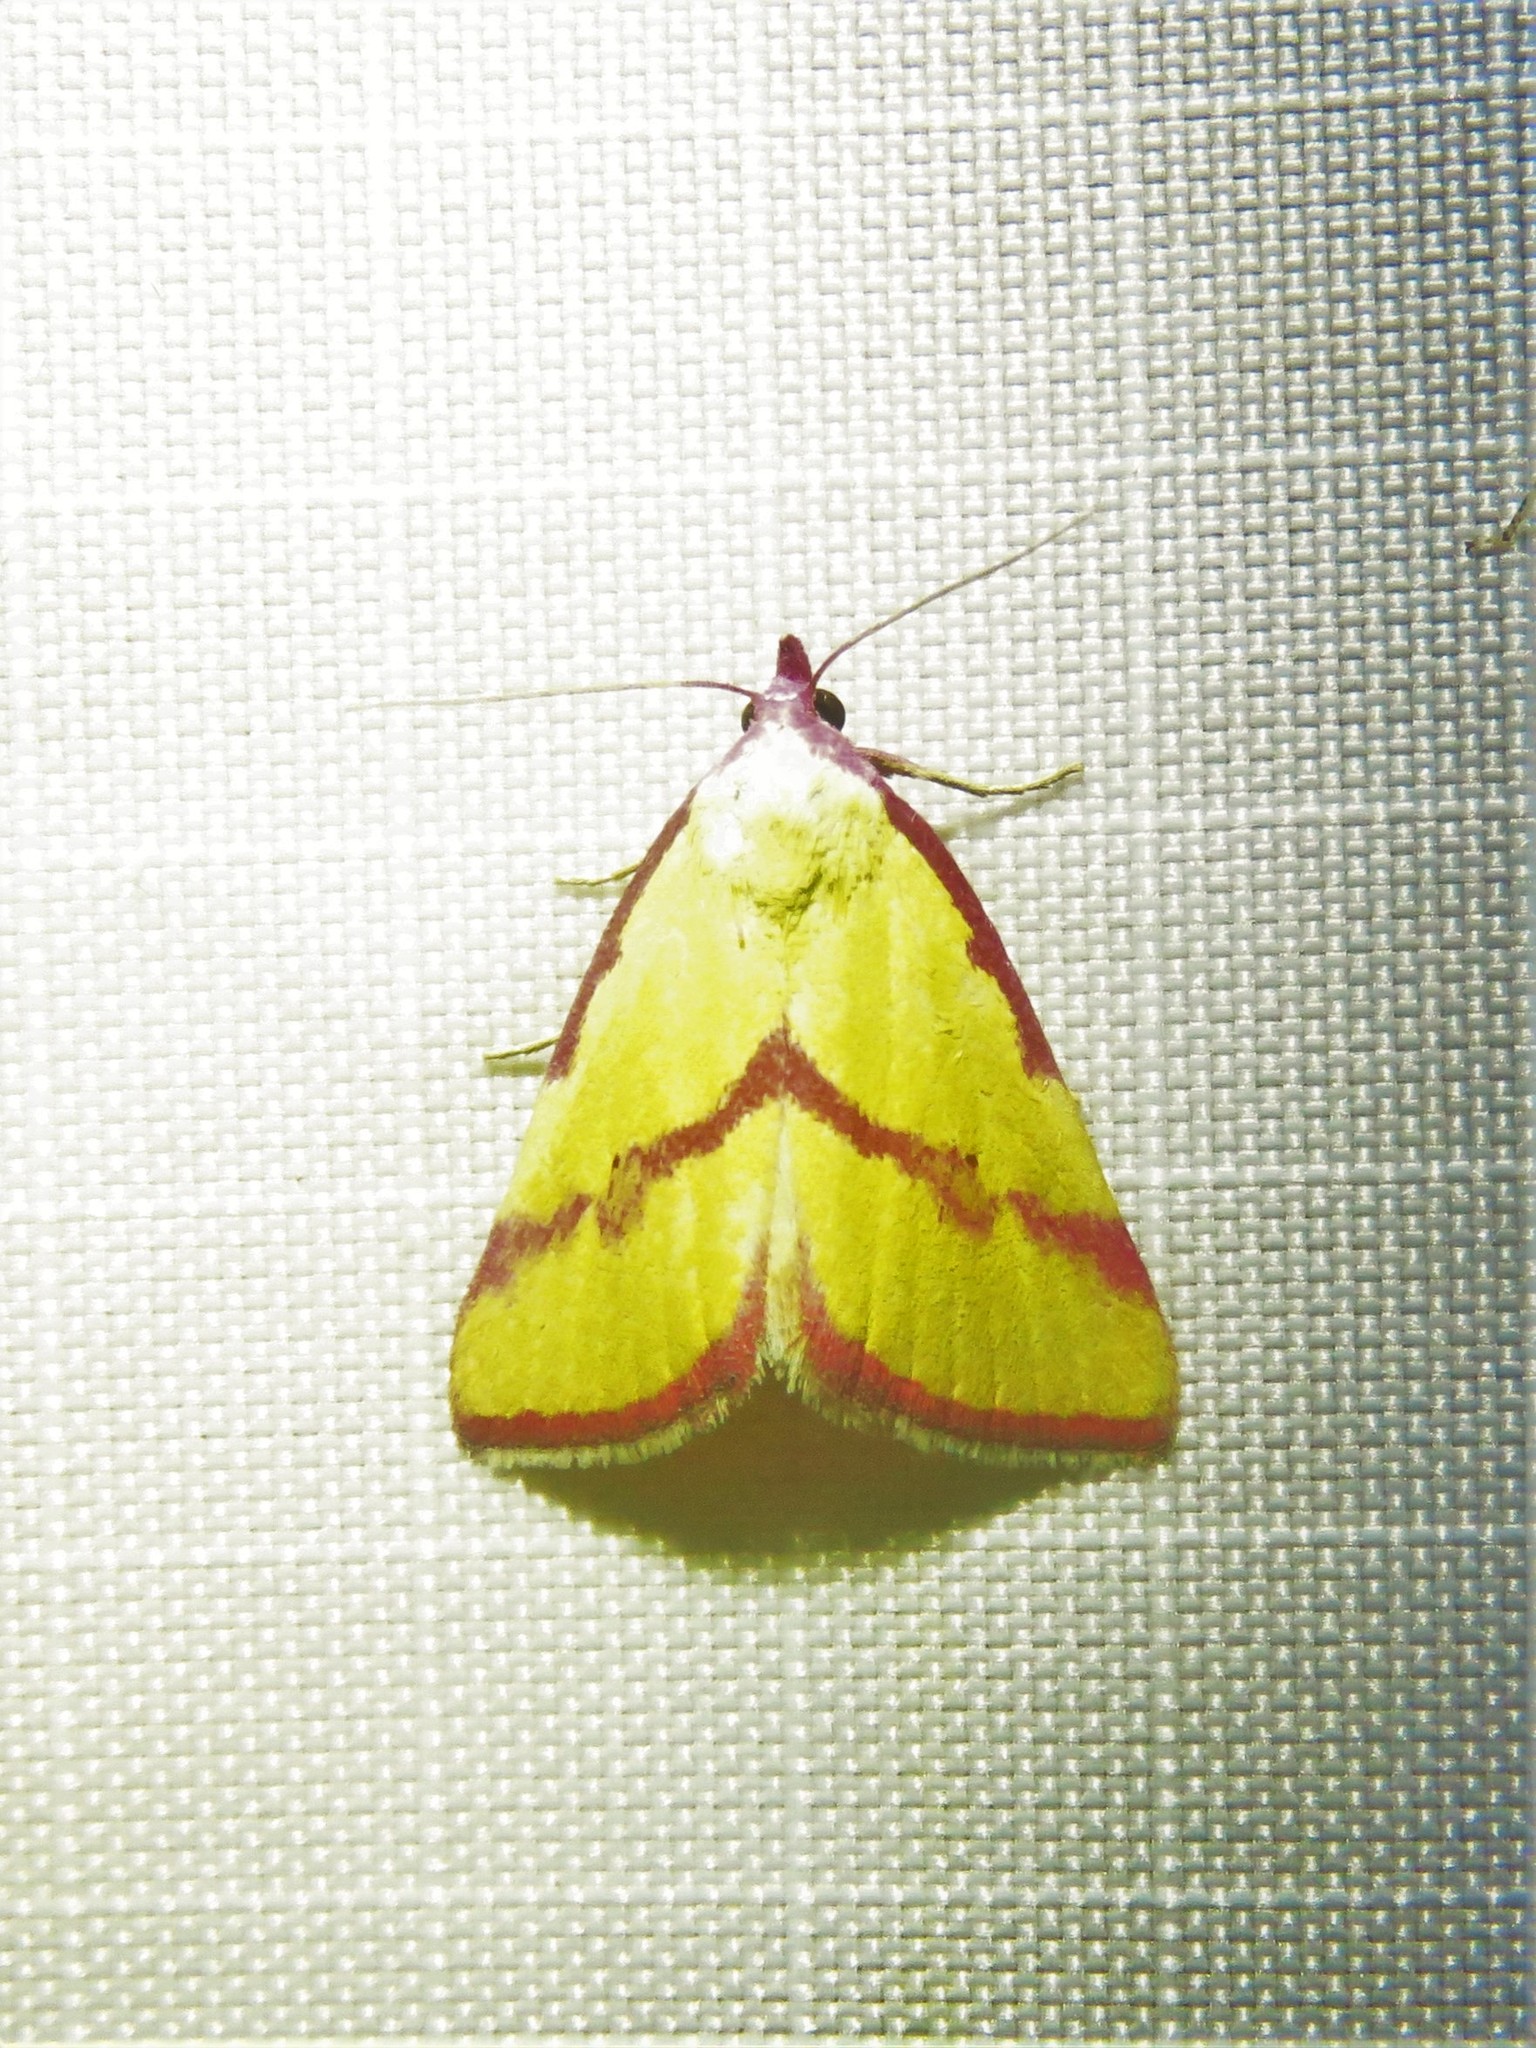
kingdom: Animalia
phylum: Arthropoda
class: Insecta
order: Lepidoptera
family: Erebidae
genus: Phytometra
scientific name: Phytometra ernestinana
